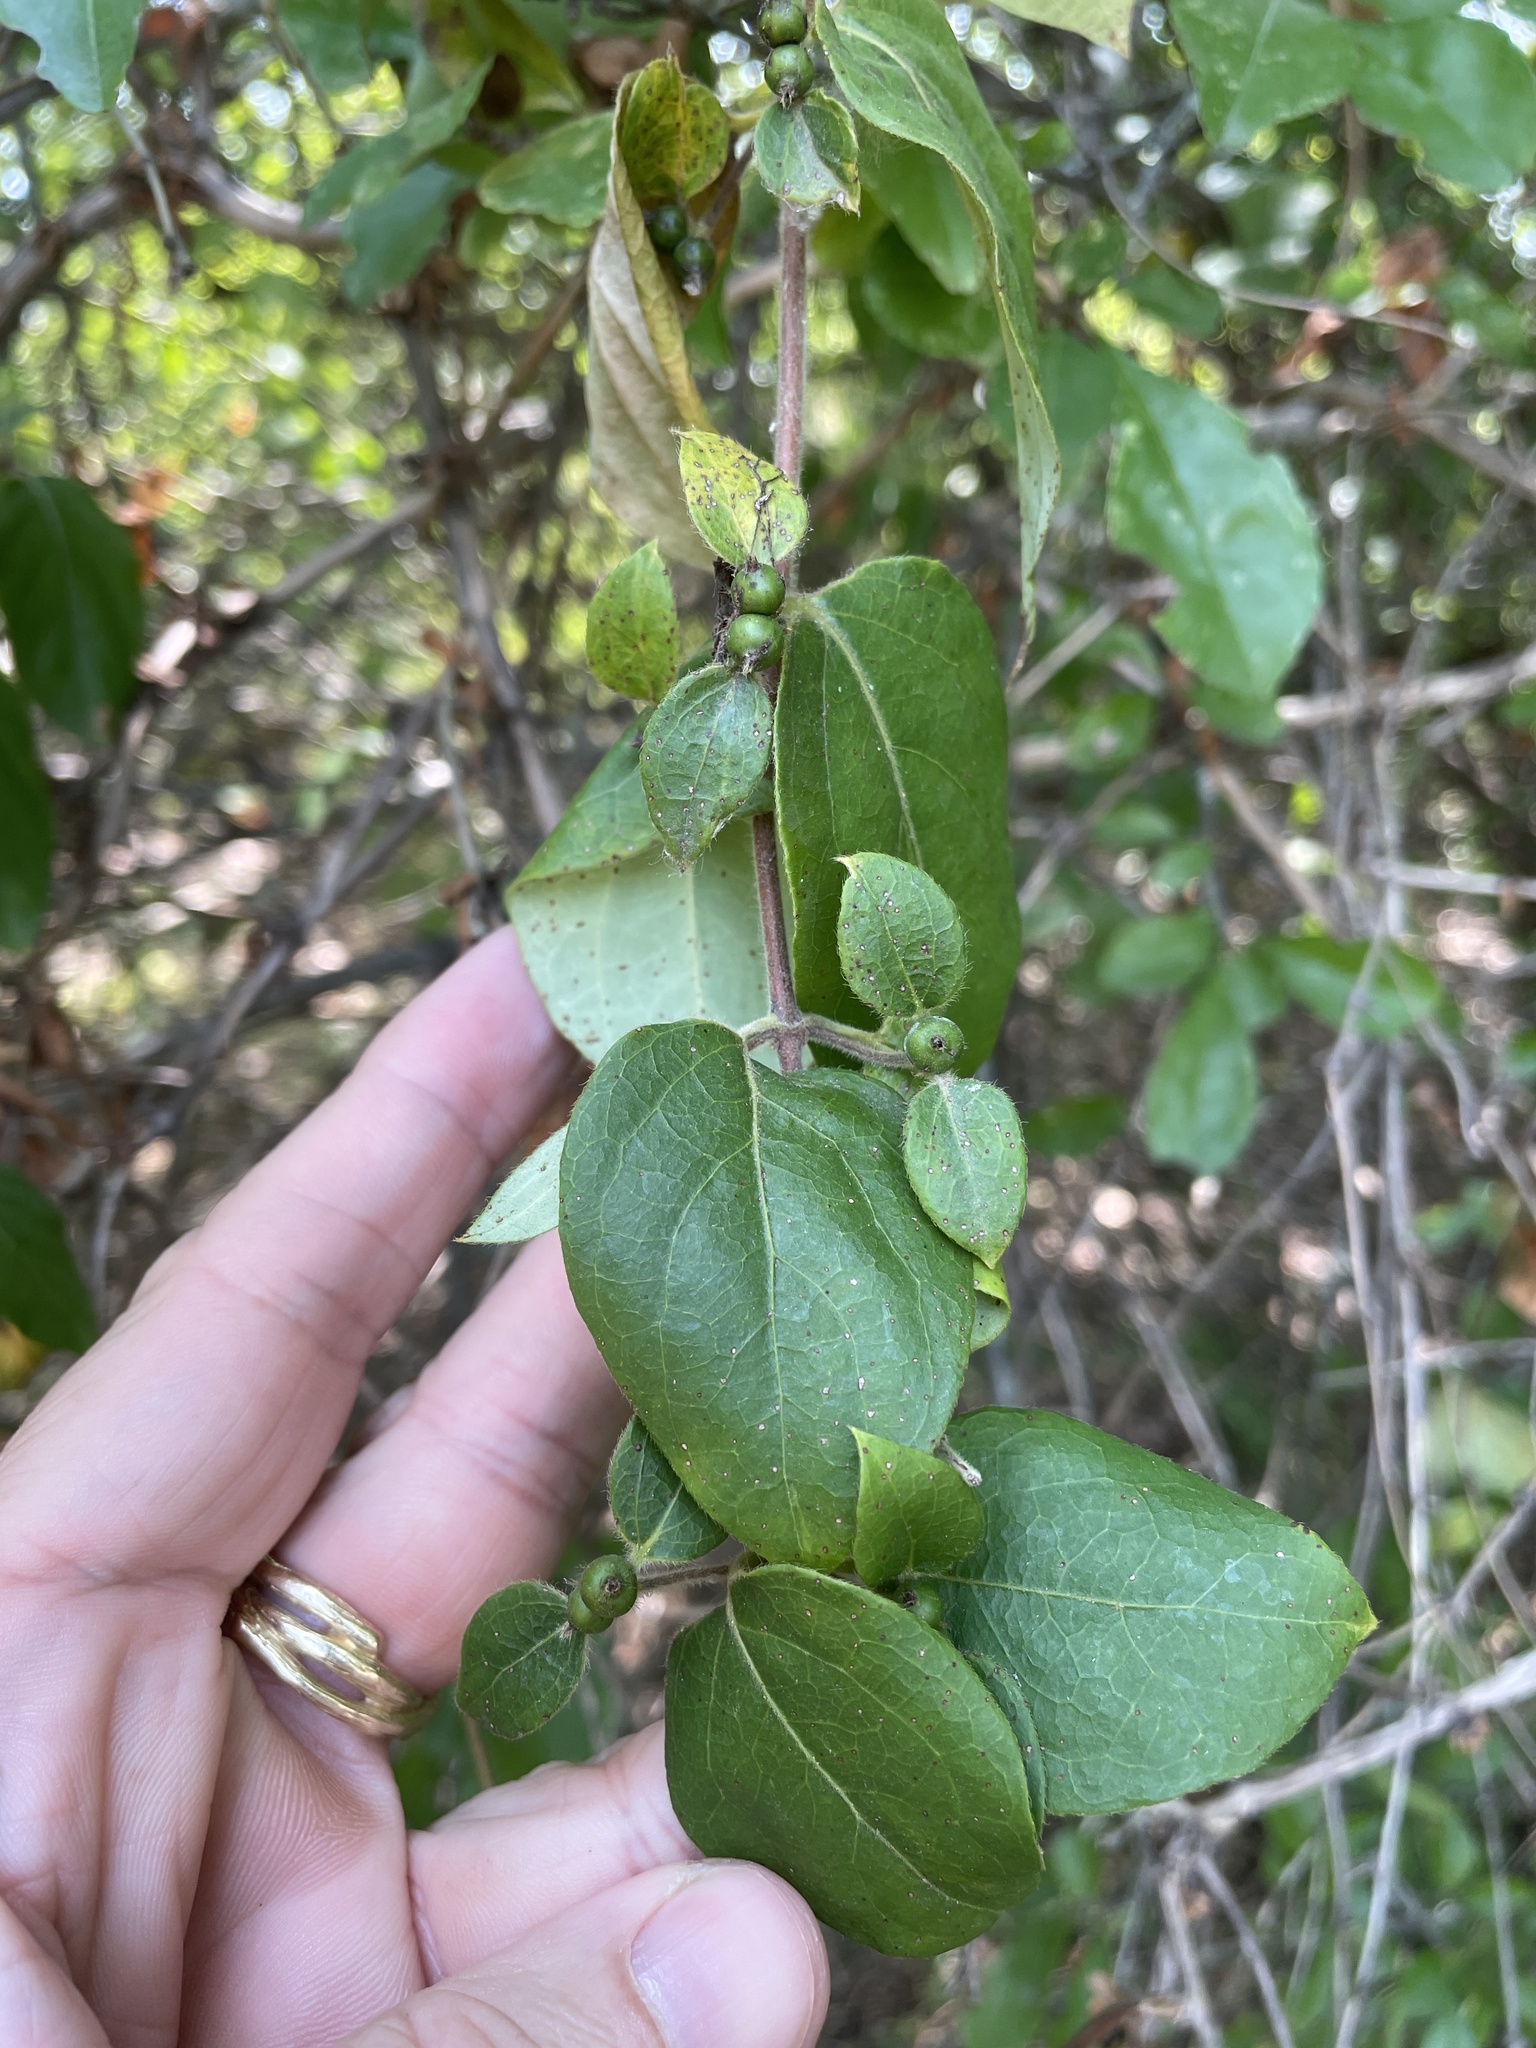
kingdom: Plantae
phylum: Tracheophyta
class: Magnoliopsida
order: Dipsacales
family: Caprifoliaceae
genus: Lonicera
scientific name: Lonicera japonica
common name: Japanese honeysuckle
